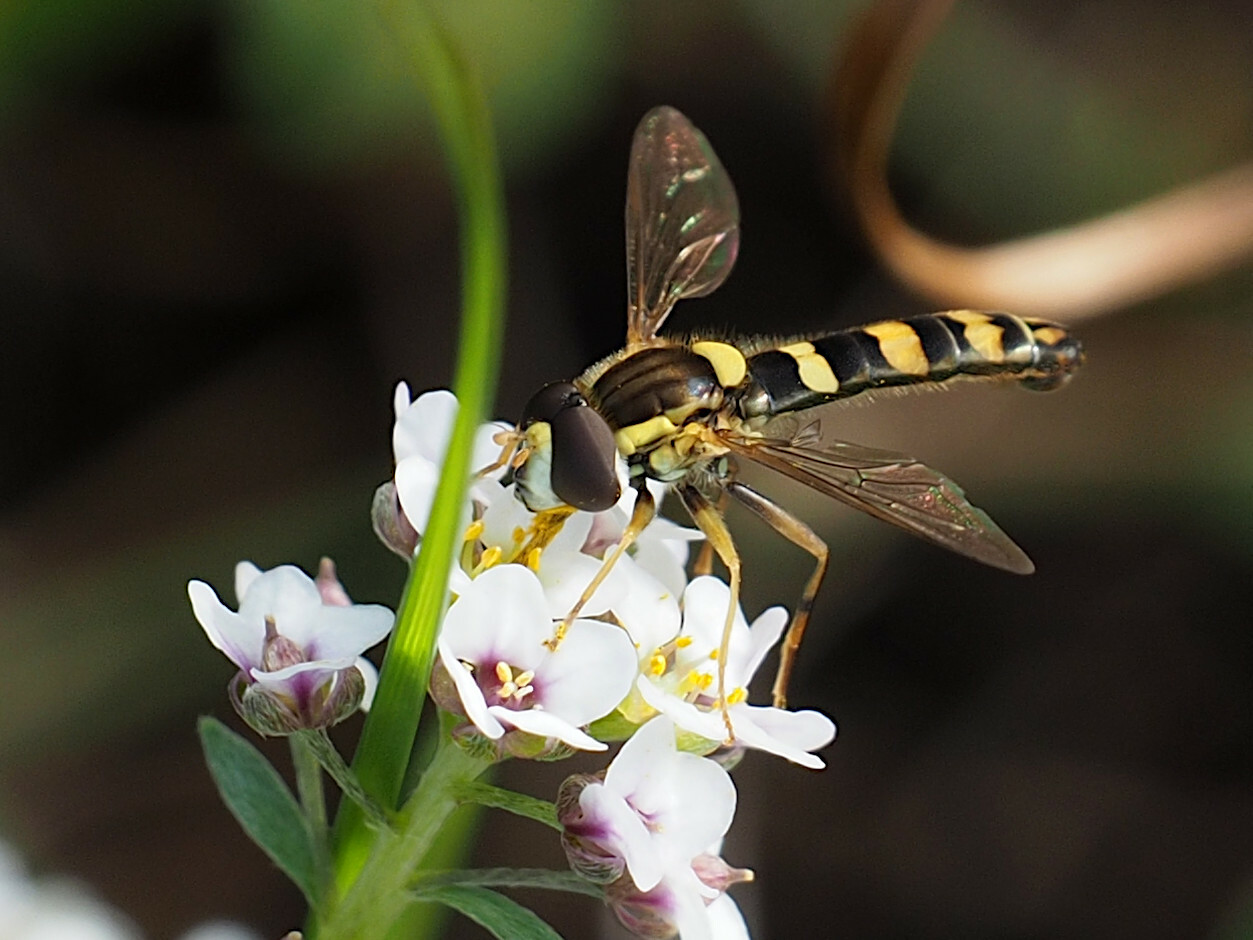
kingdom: Animalia
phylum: Arthropoda
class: Insecta
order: Diptera
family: Syrphidae
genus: Sphaerophoria
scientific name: Sphaerophoria scripta
